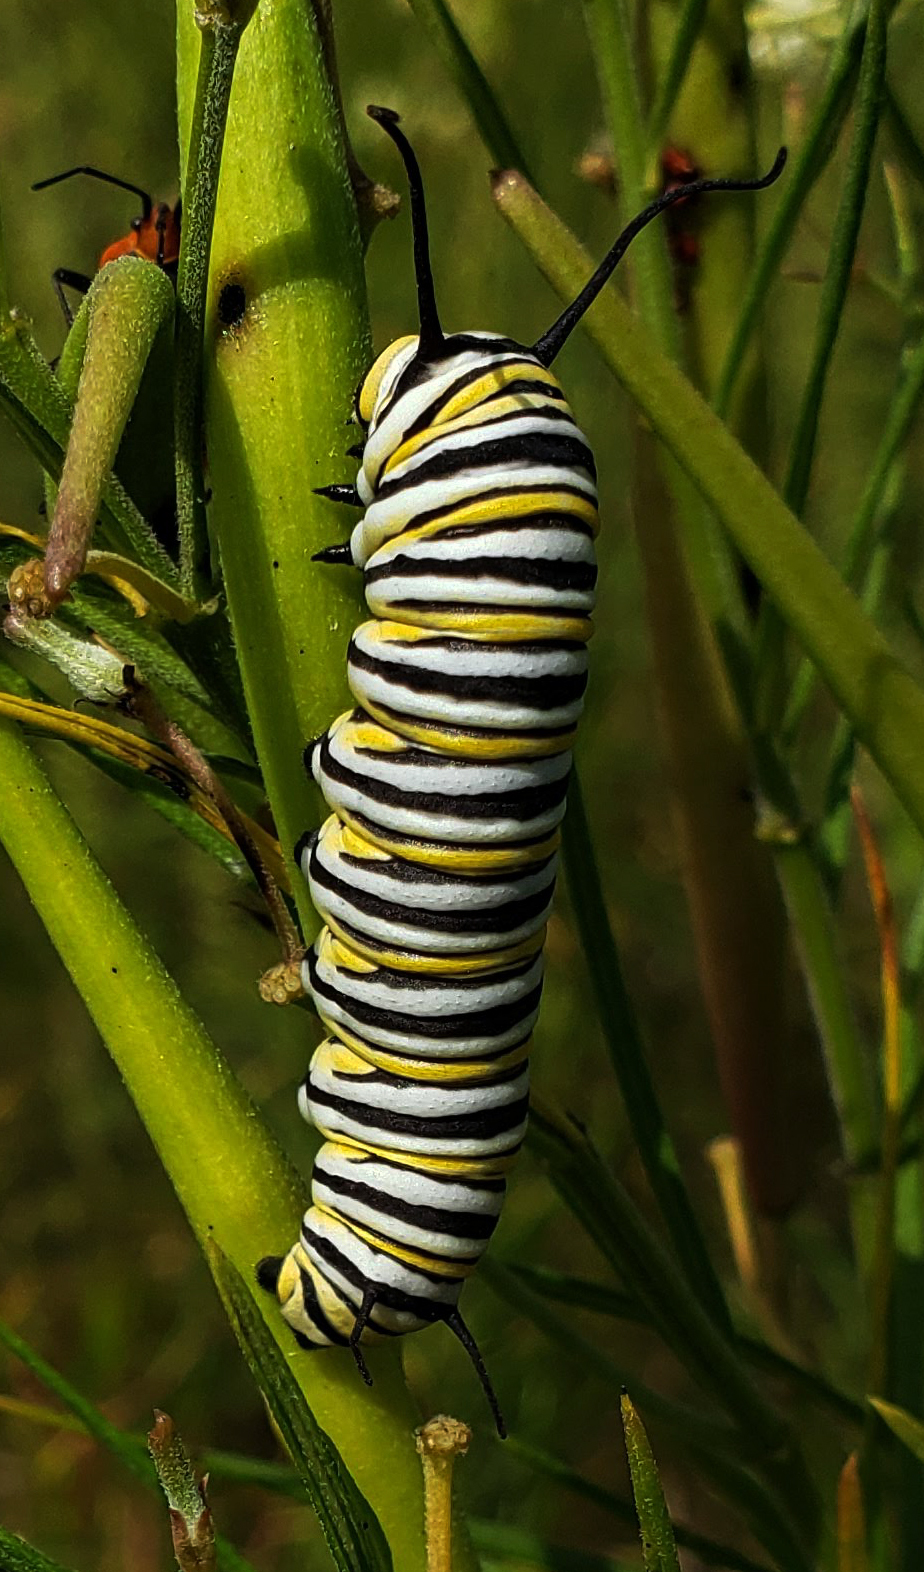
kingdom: Animalia
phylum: Arthropoda
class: Insecta
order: Lepidoptera
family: Nymphalidae
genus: Danaus
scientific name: Danaus plexippus
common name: Monarch
